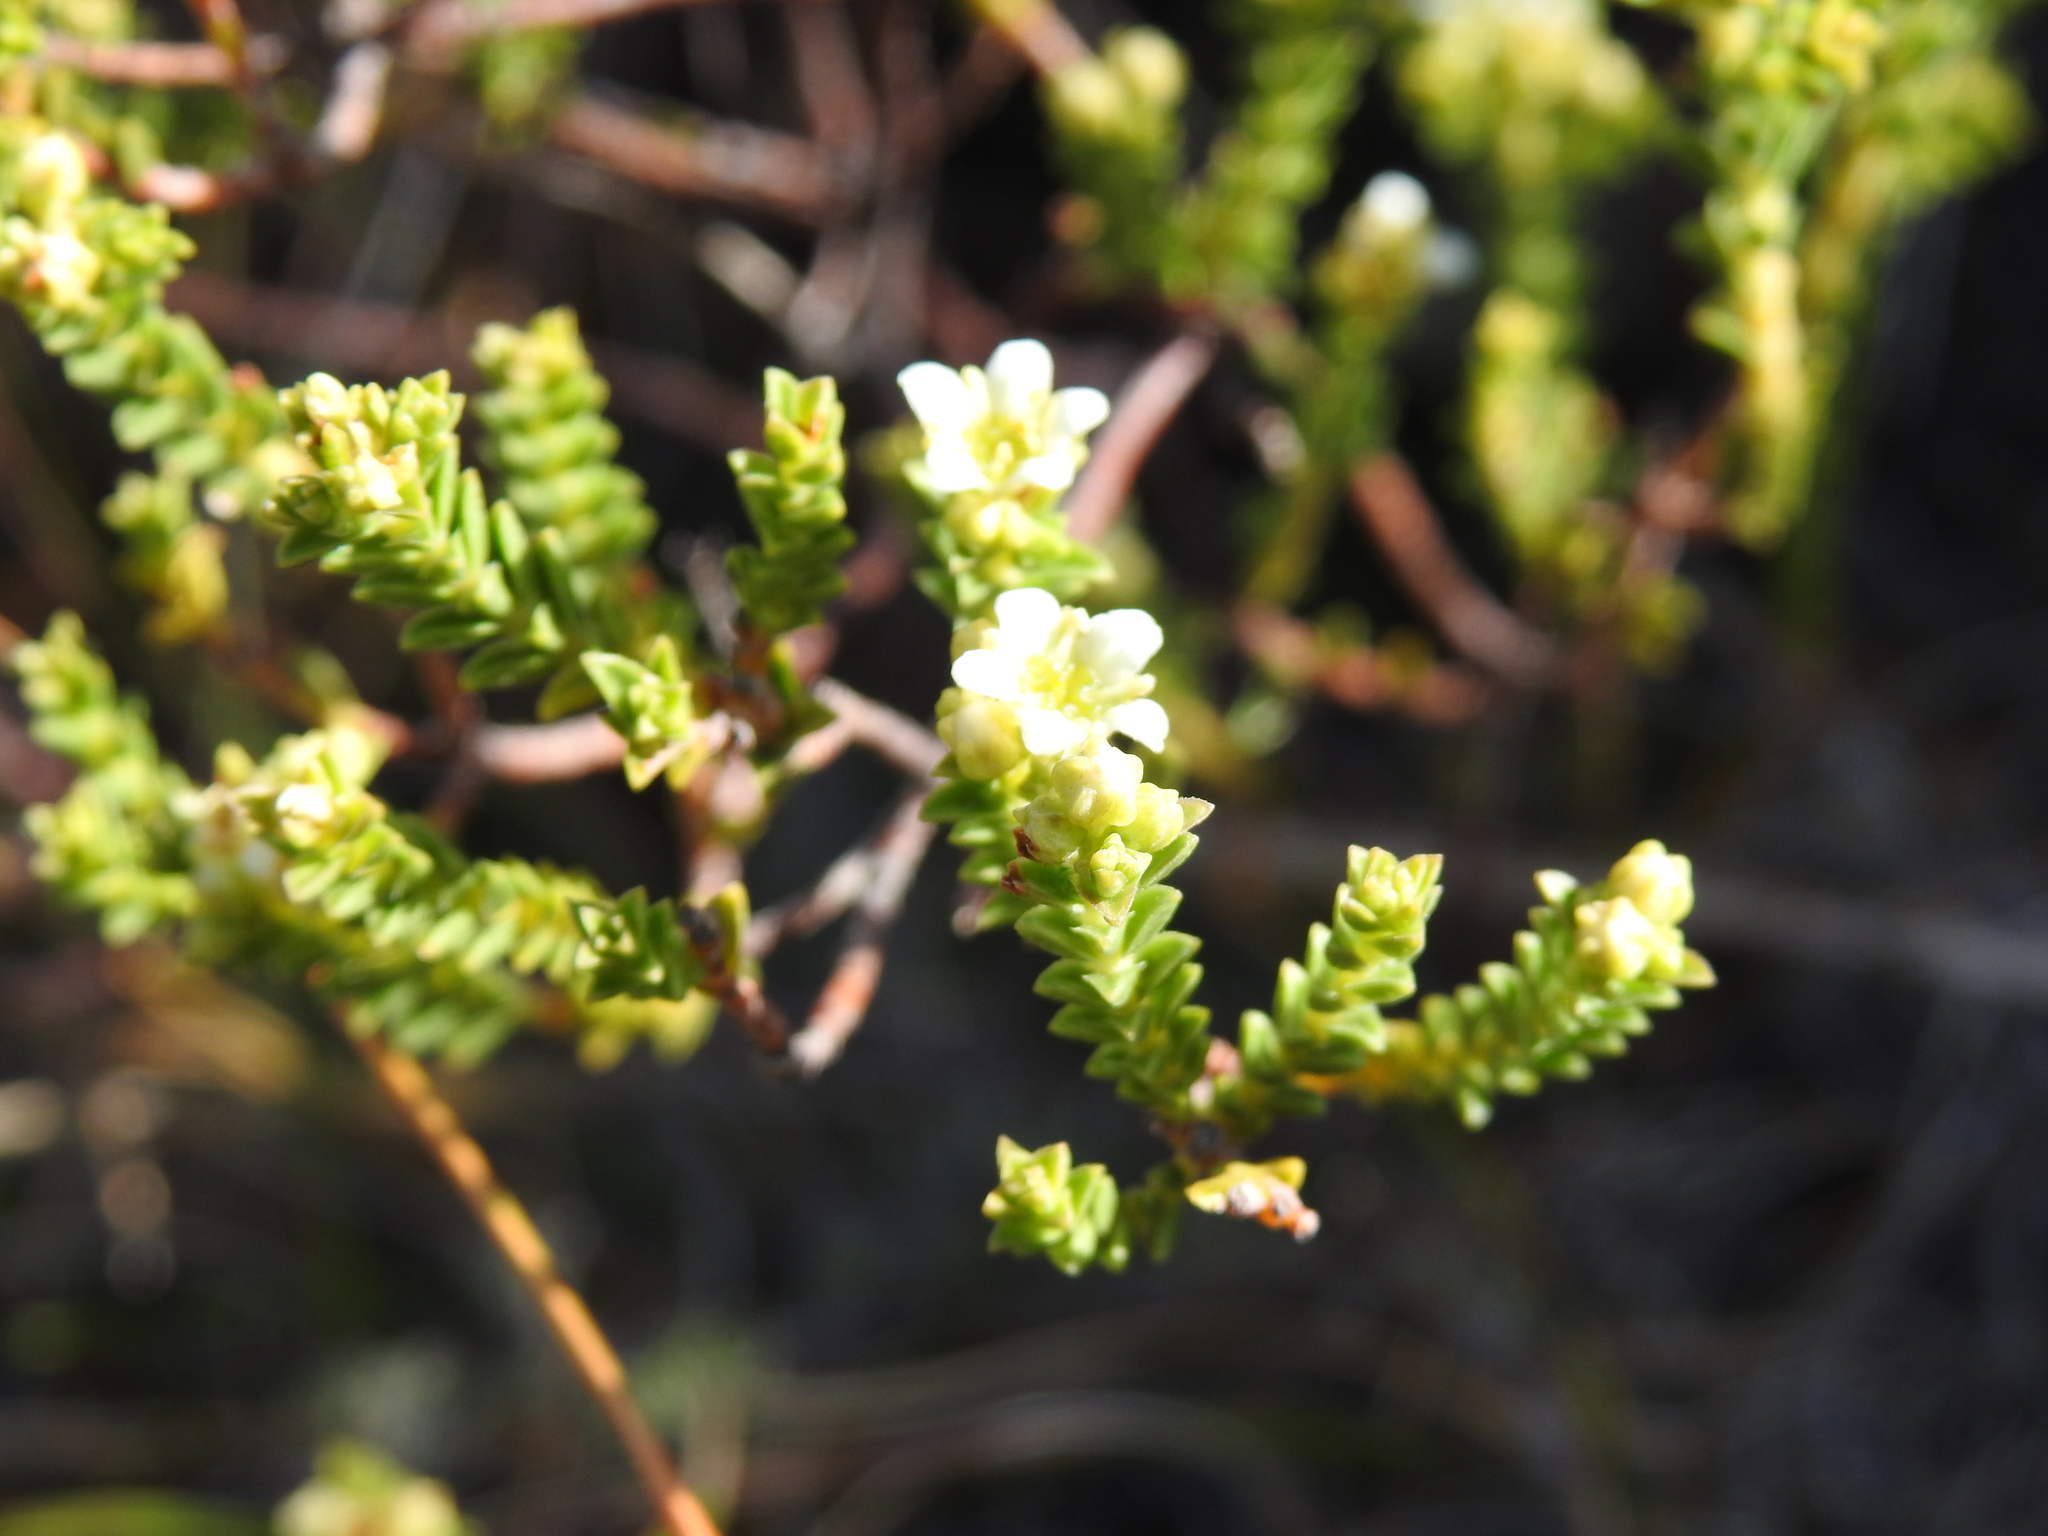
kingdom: Plantae
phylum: Tracheophyta
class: Magnoliopsida
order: Sapindales
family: Rutaceae
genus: Diosma
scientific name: Diosma oppositifolia
